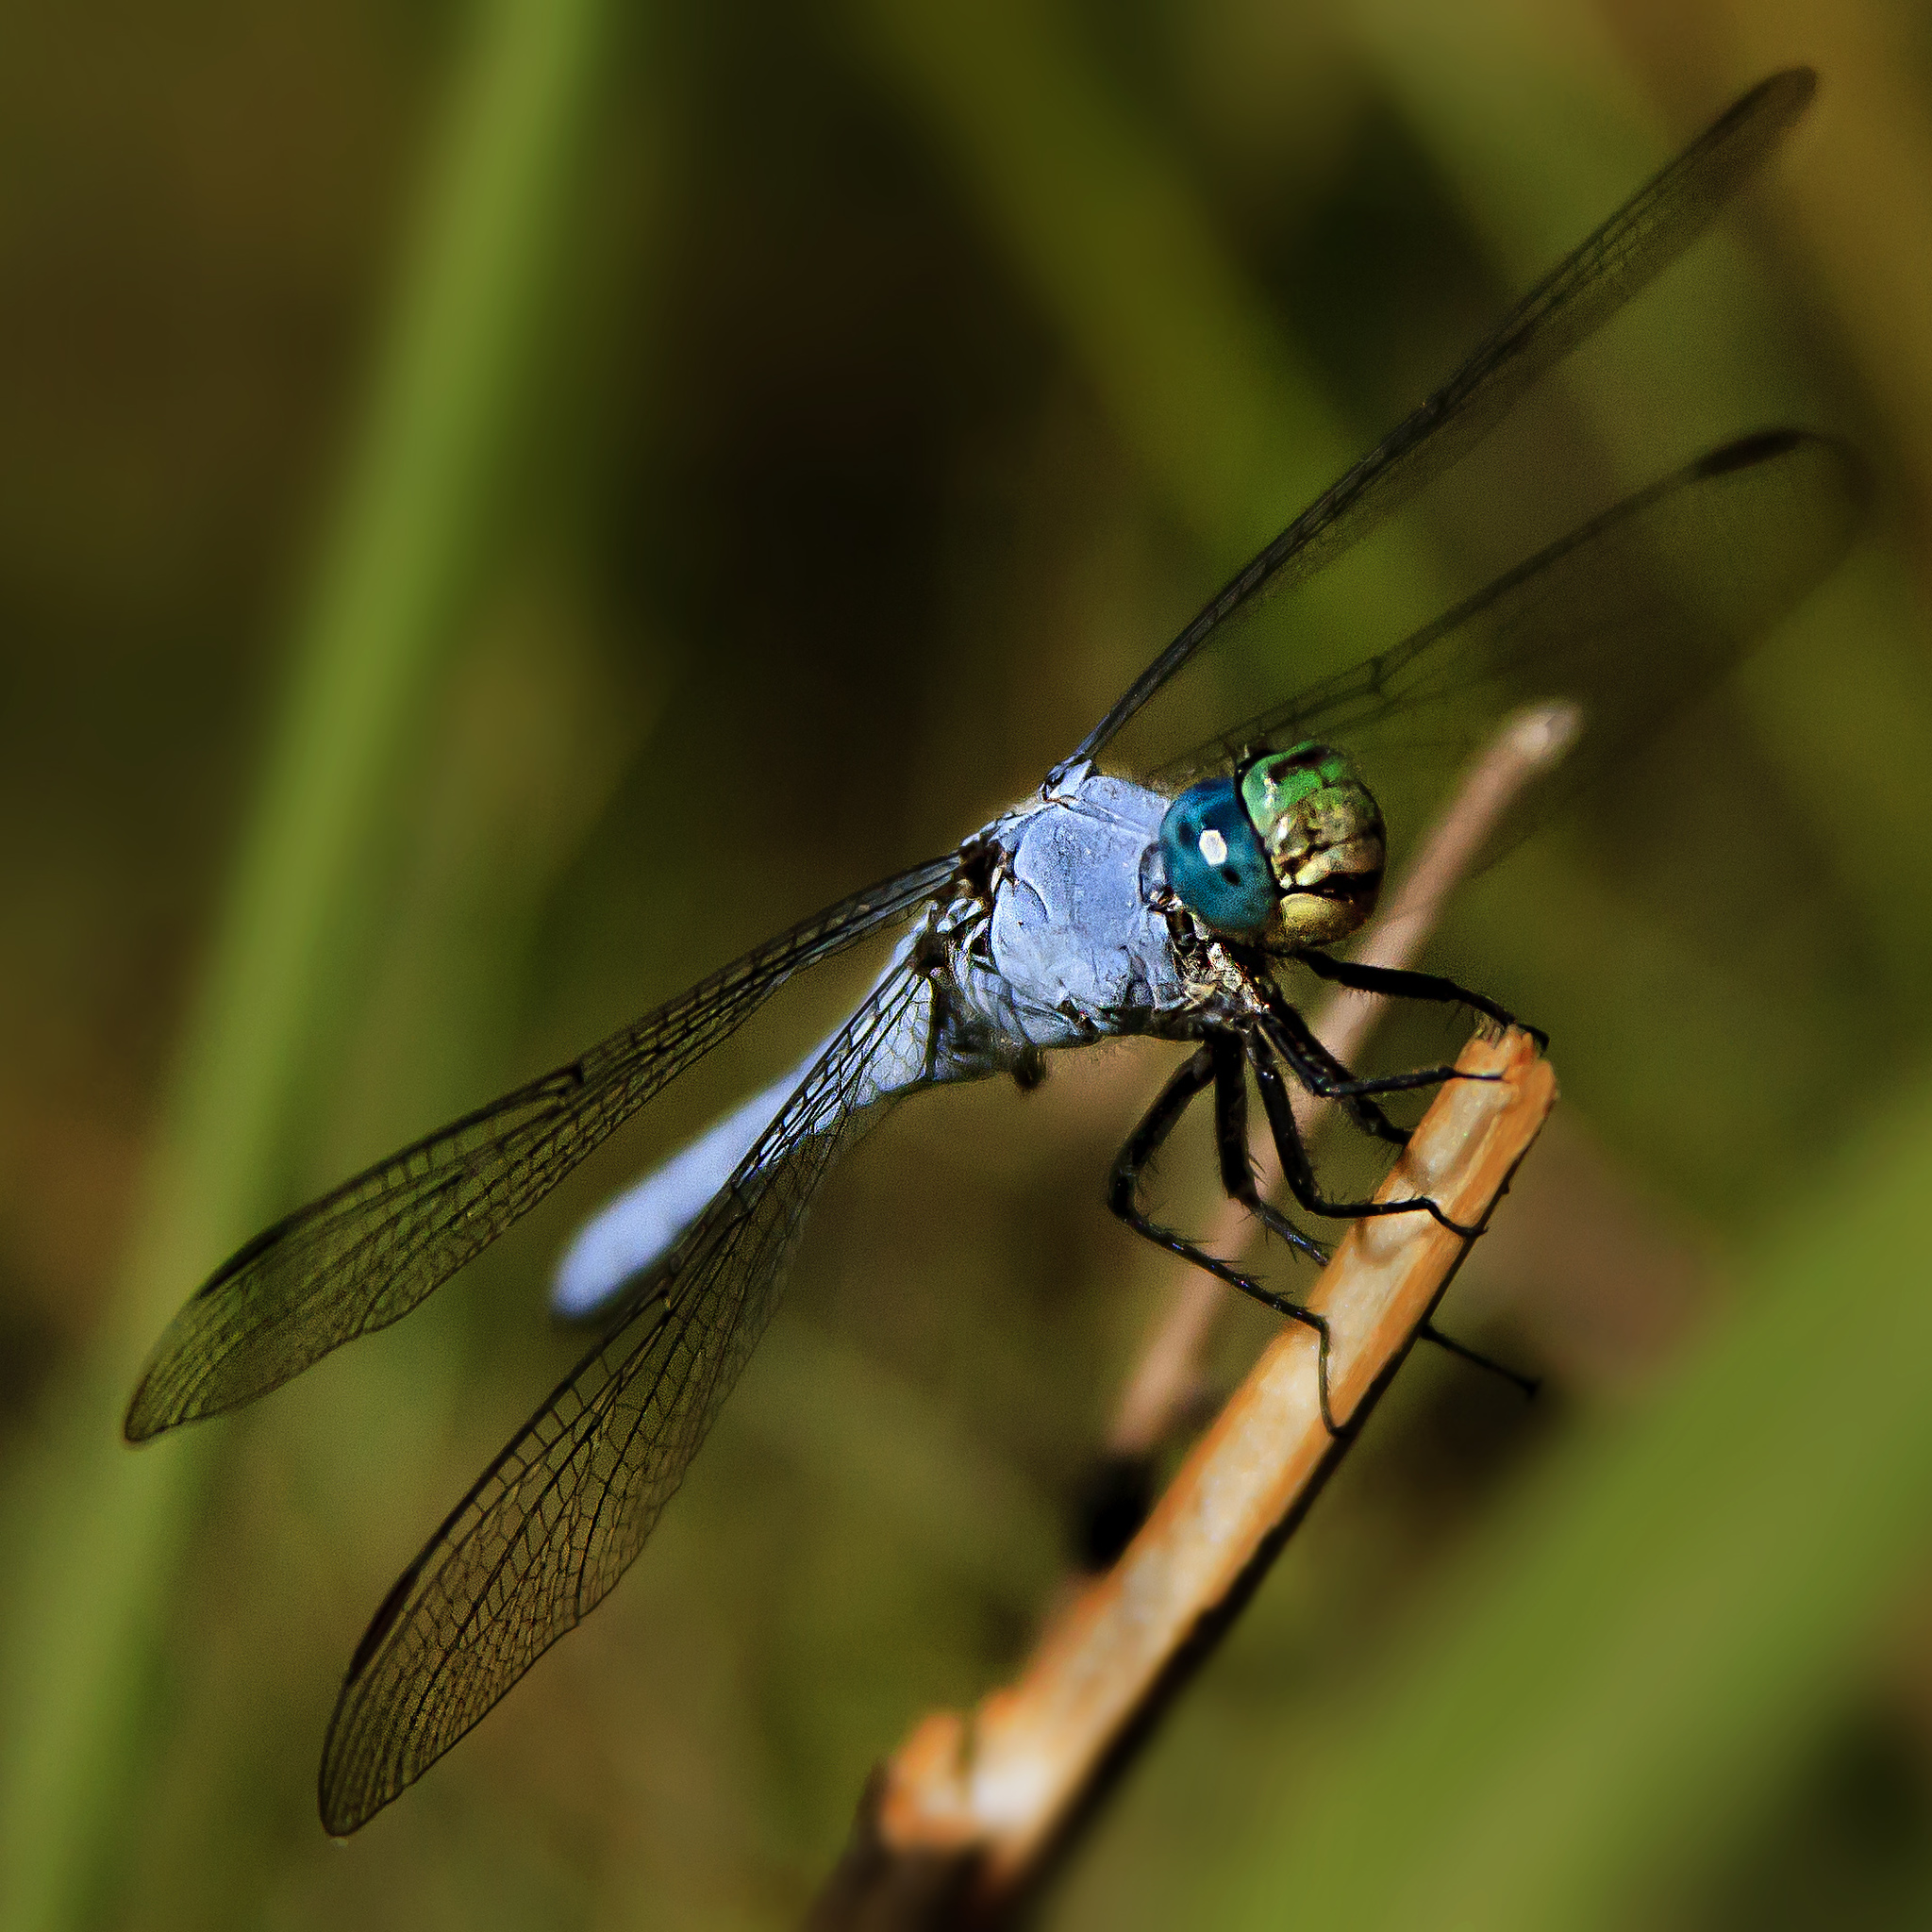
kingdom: Animalia
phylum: Arthropoda
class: Insecta
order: Odonata
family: Libellulidae
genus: Erythemis
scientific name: Erythemis collocata
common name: Western pondhawk
